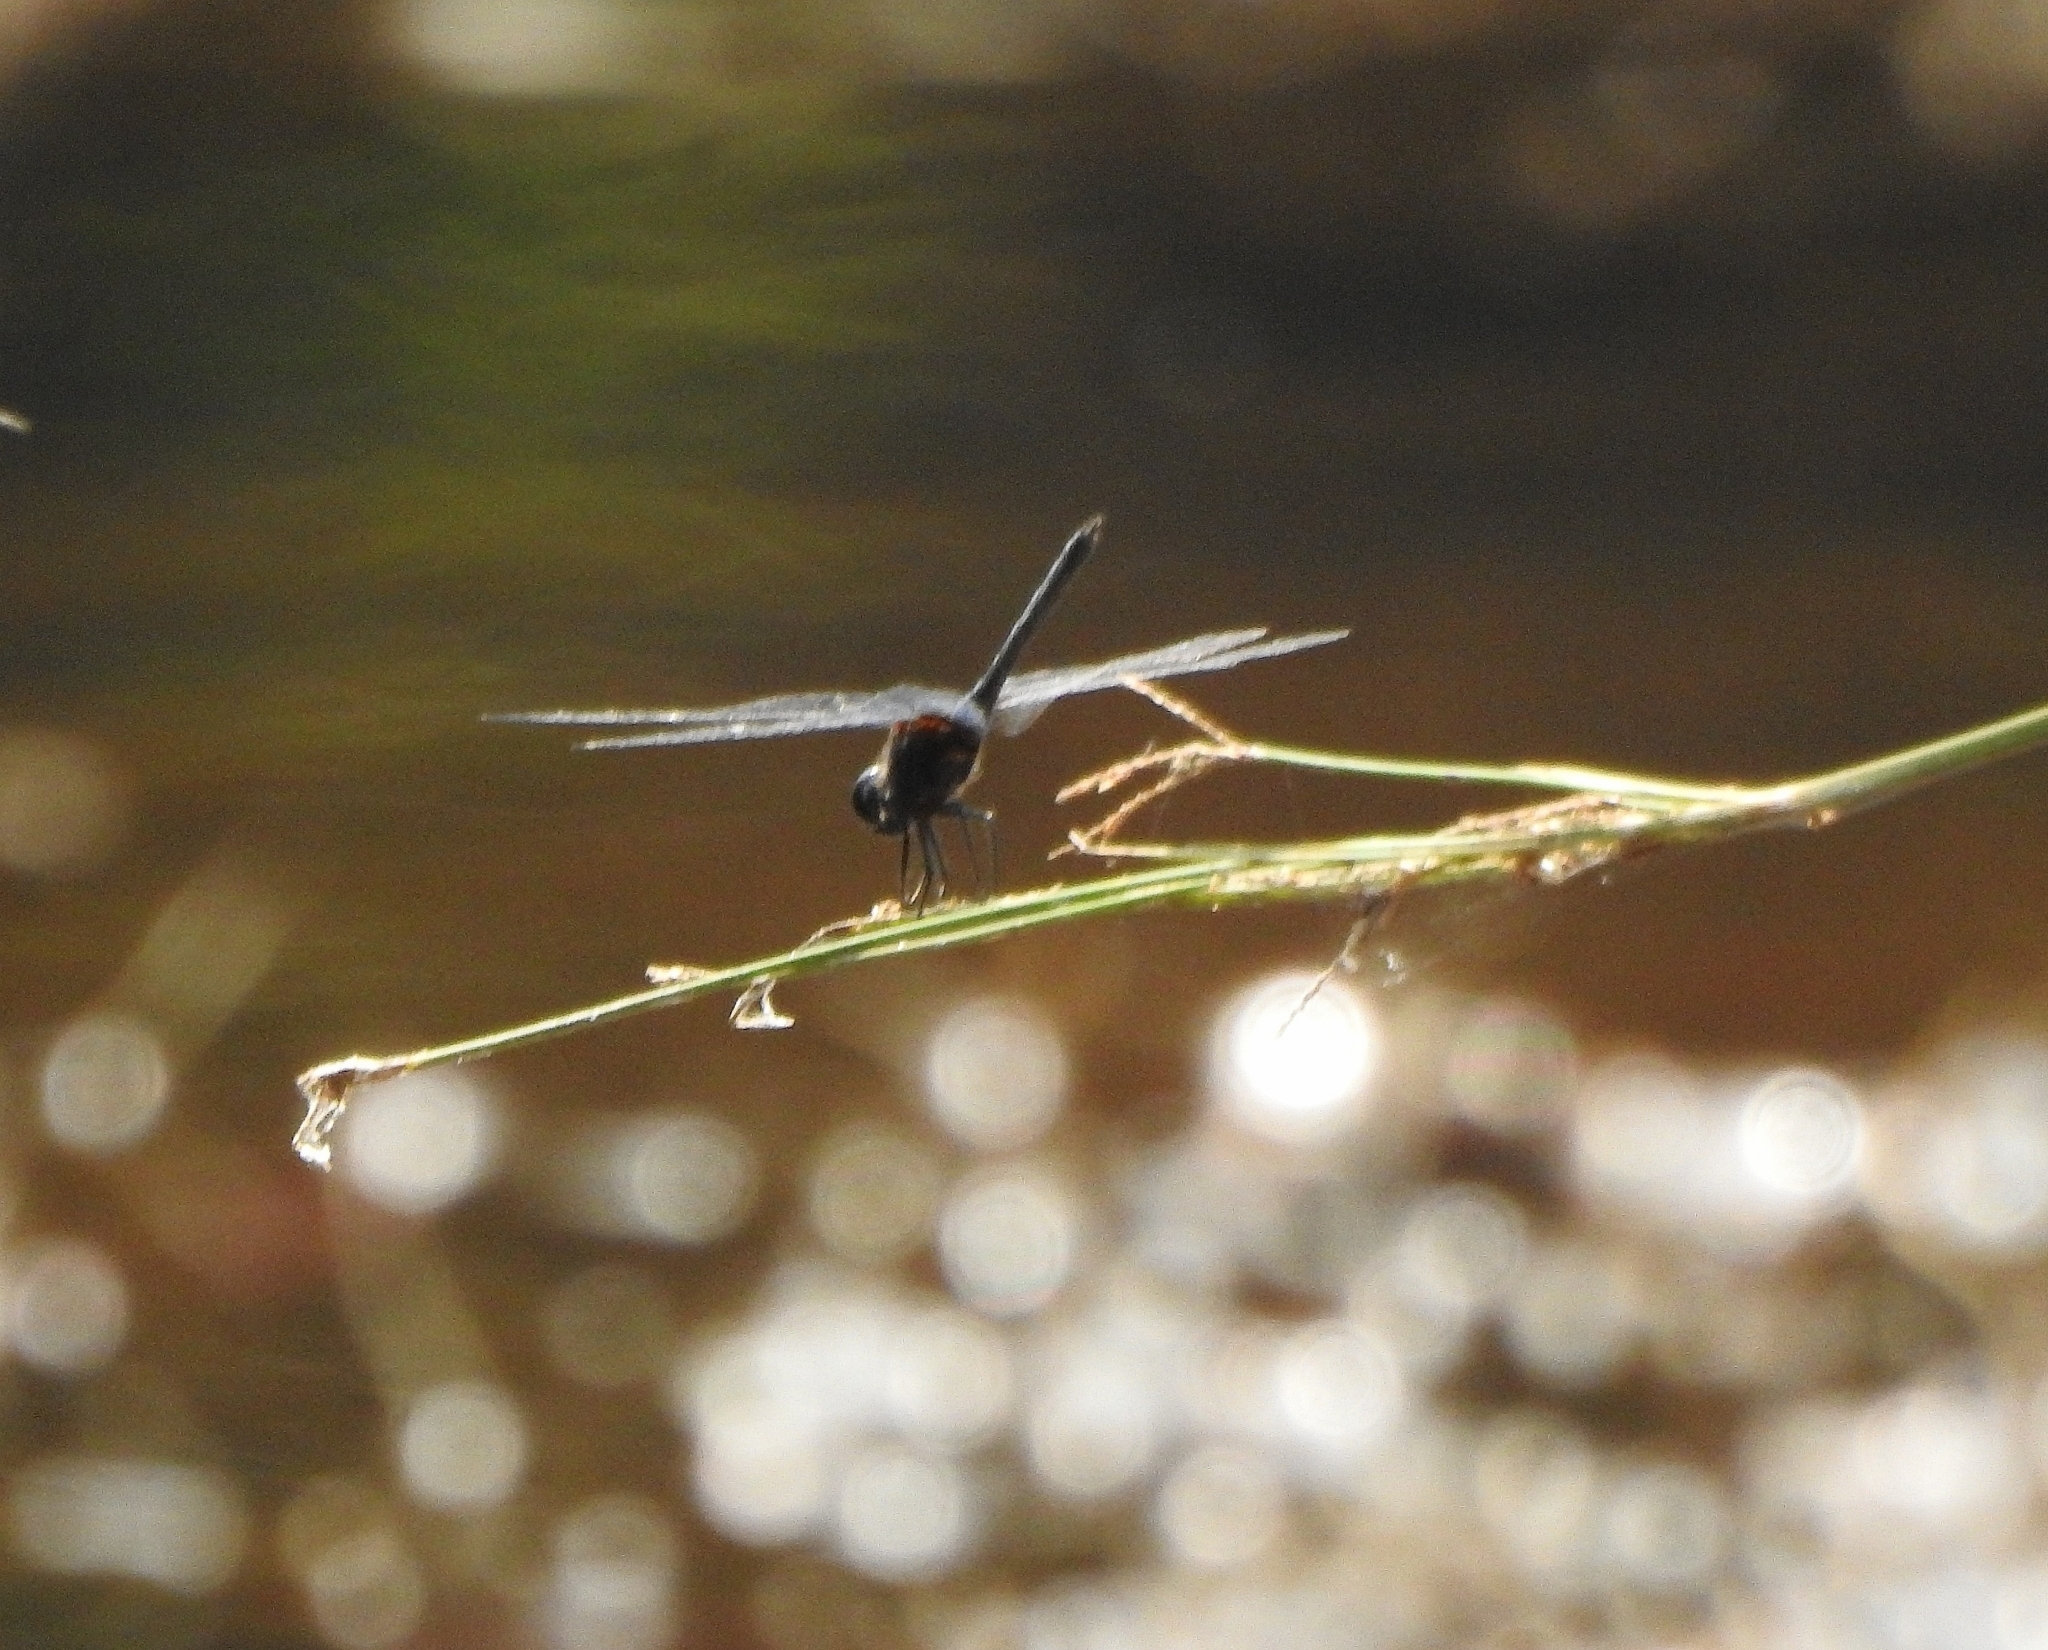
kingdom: Animalia
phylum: Arthropoda
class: Insecta
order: Odonata
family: Libellulidae
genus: Trithemis
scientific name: Trithemis festiva
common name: Indigo dropwing
